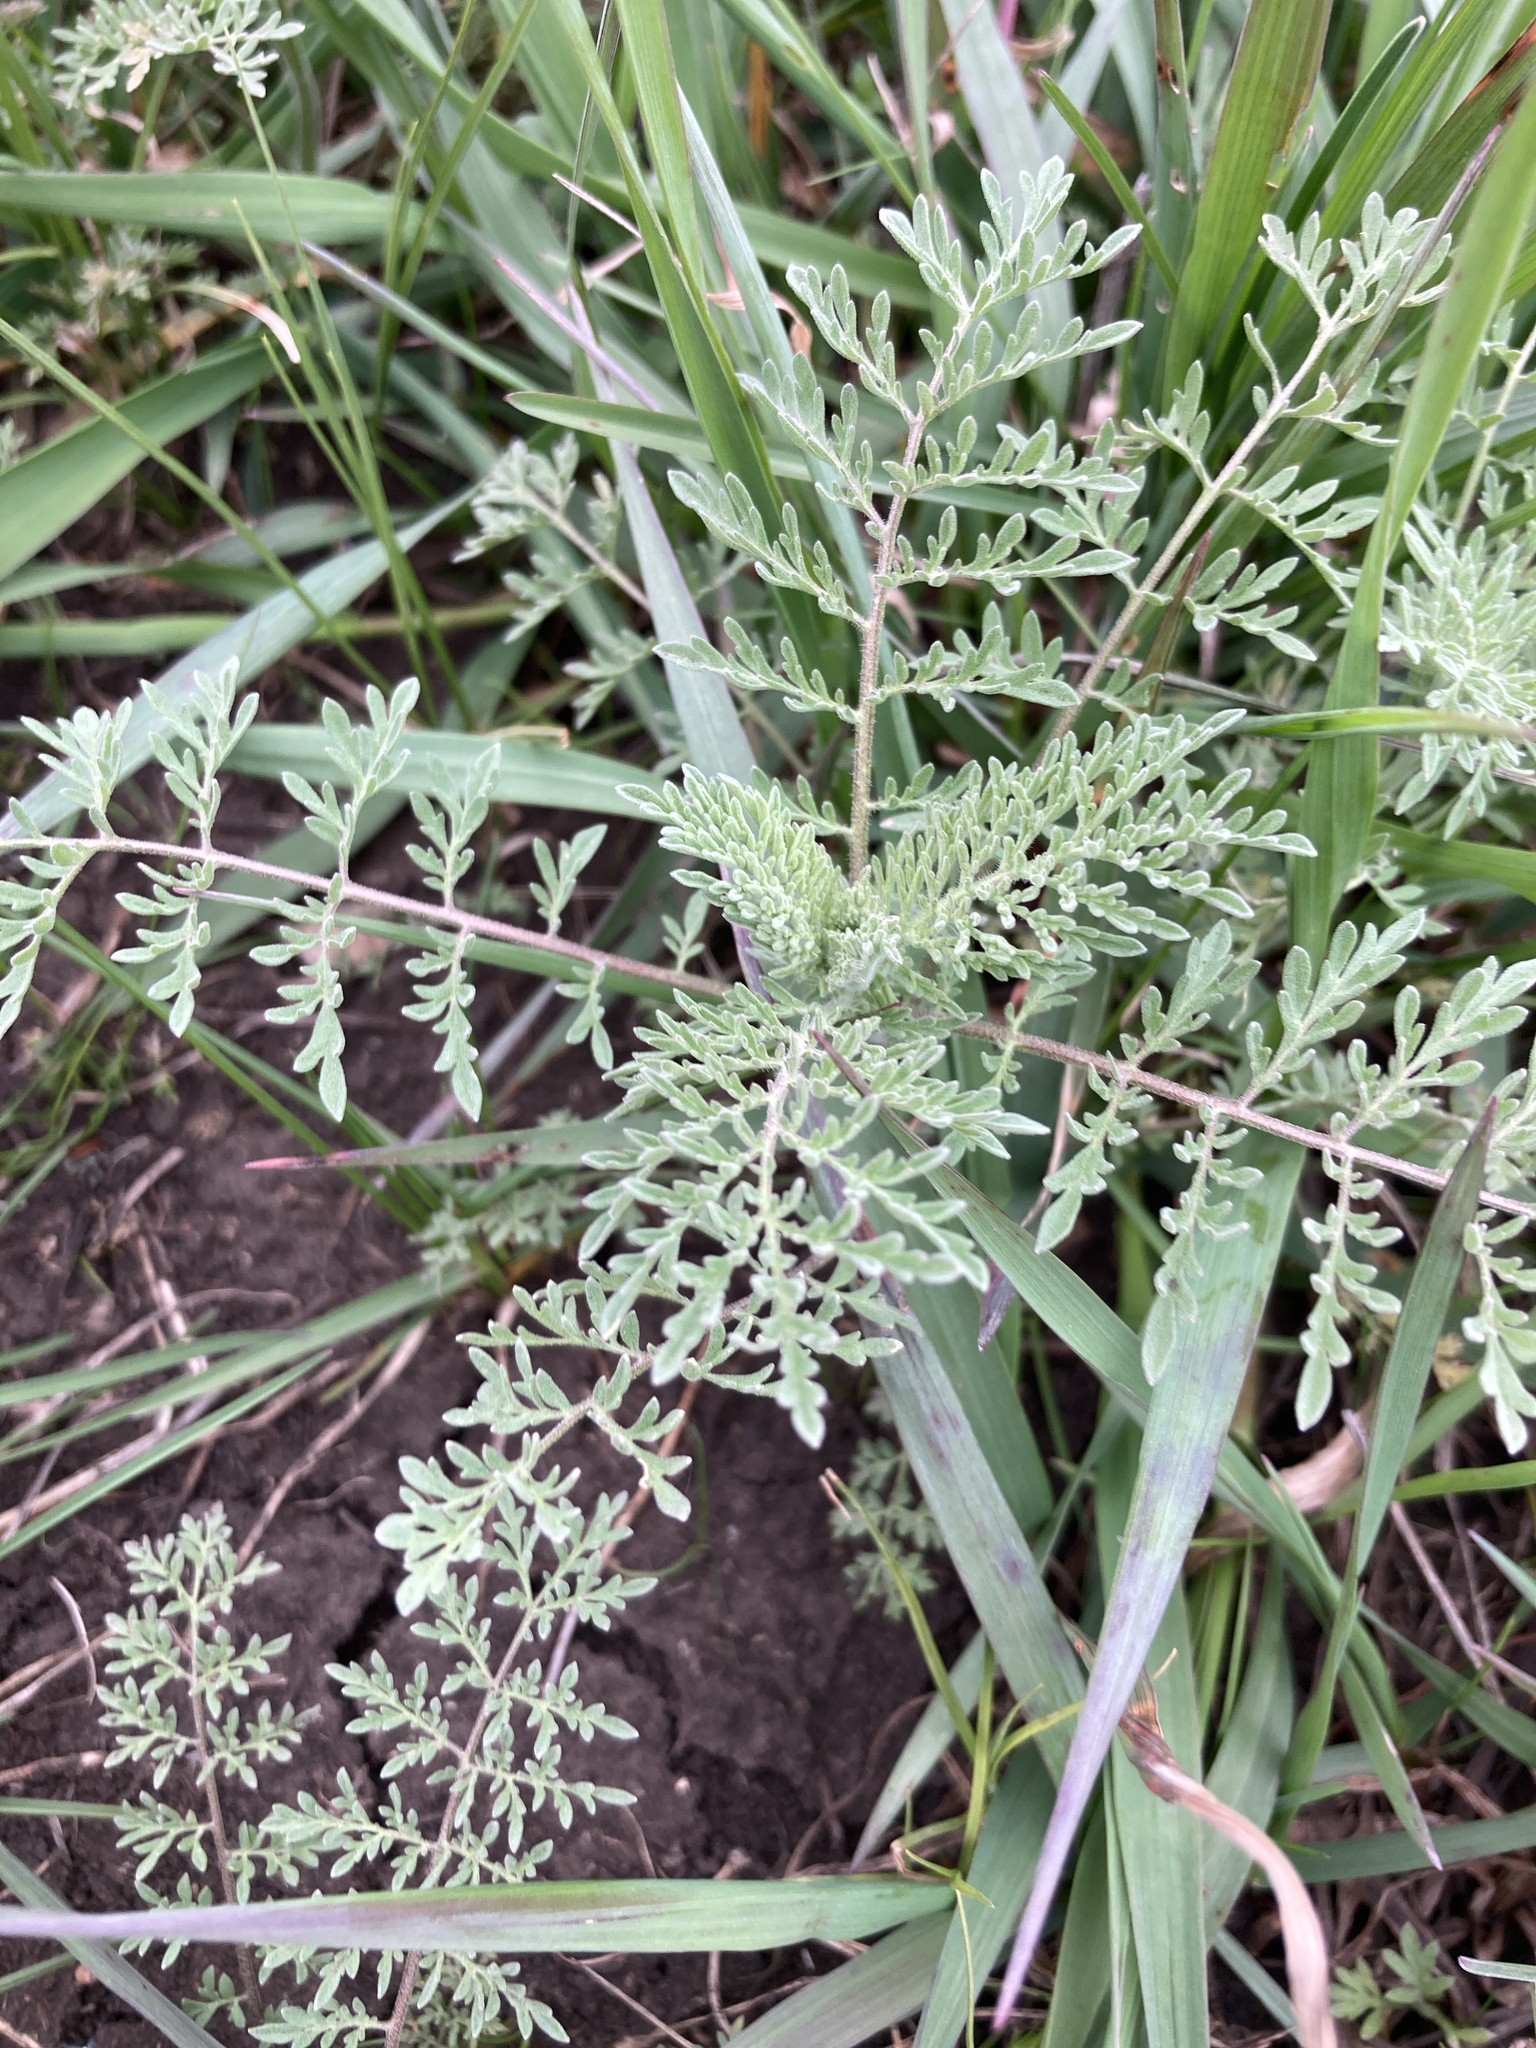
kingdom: Plantae
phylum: Tracheophyta
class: Magnoliopsida
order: Brassicales
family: Brassicaceae
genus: Descurainia
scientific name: Descurainia sophia
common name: Flixweed
